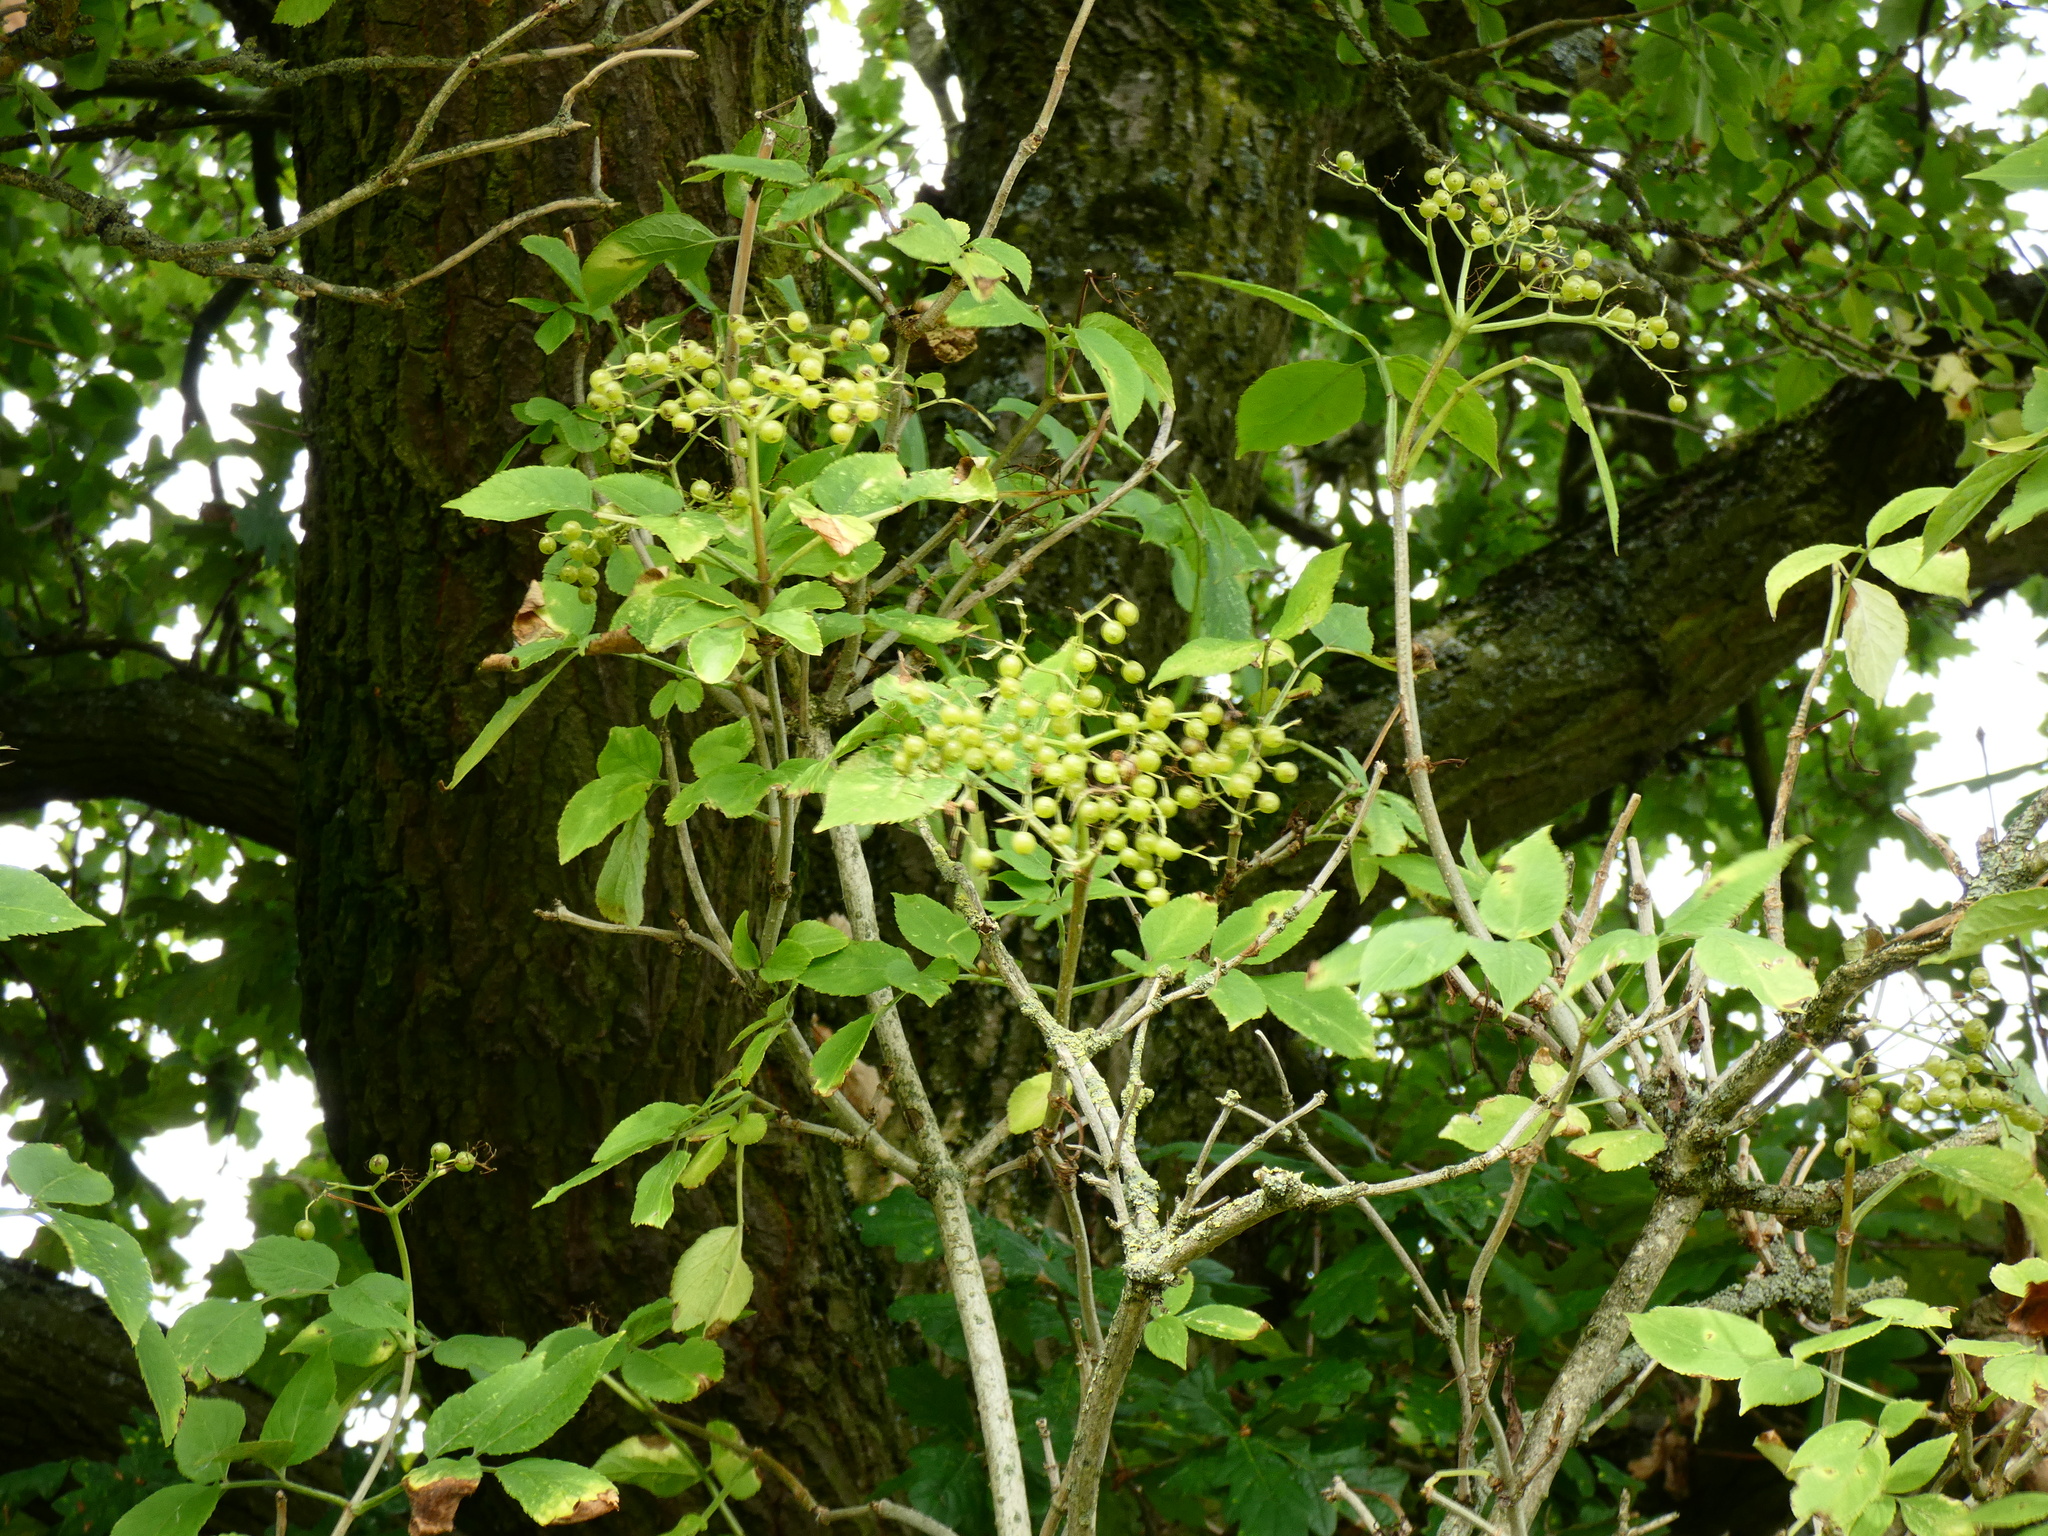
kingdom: Plantae
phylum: Tracheophyta
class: Magnoliopsida
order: Dipsacales
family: Viburnaceae
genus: Sambucus
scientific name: Sambucus nigra
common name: Elder
